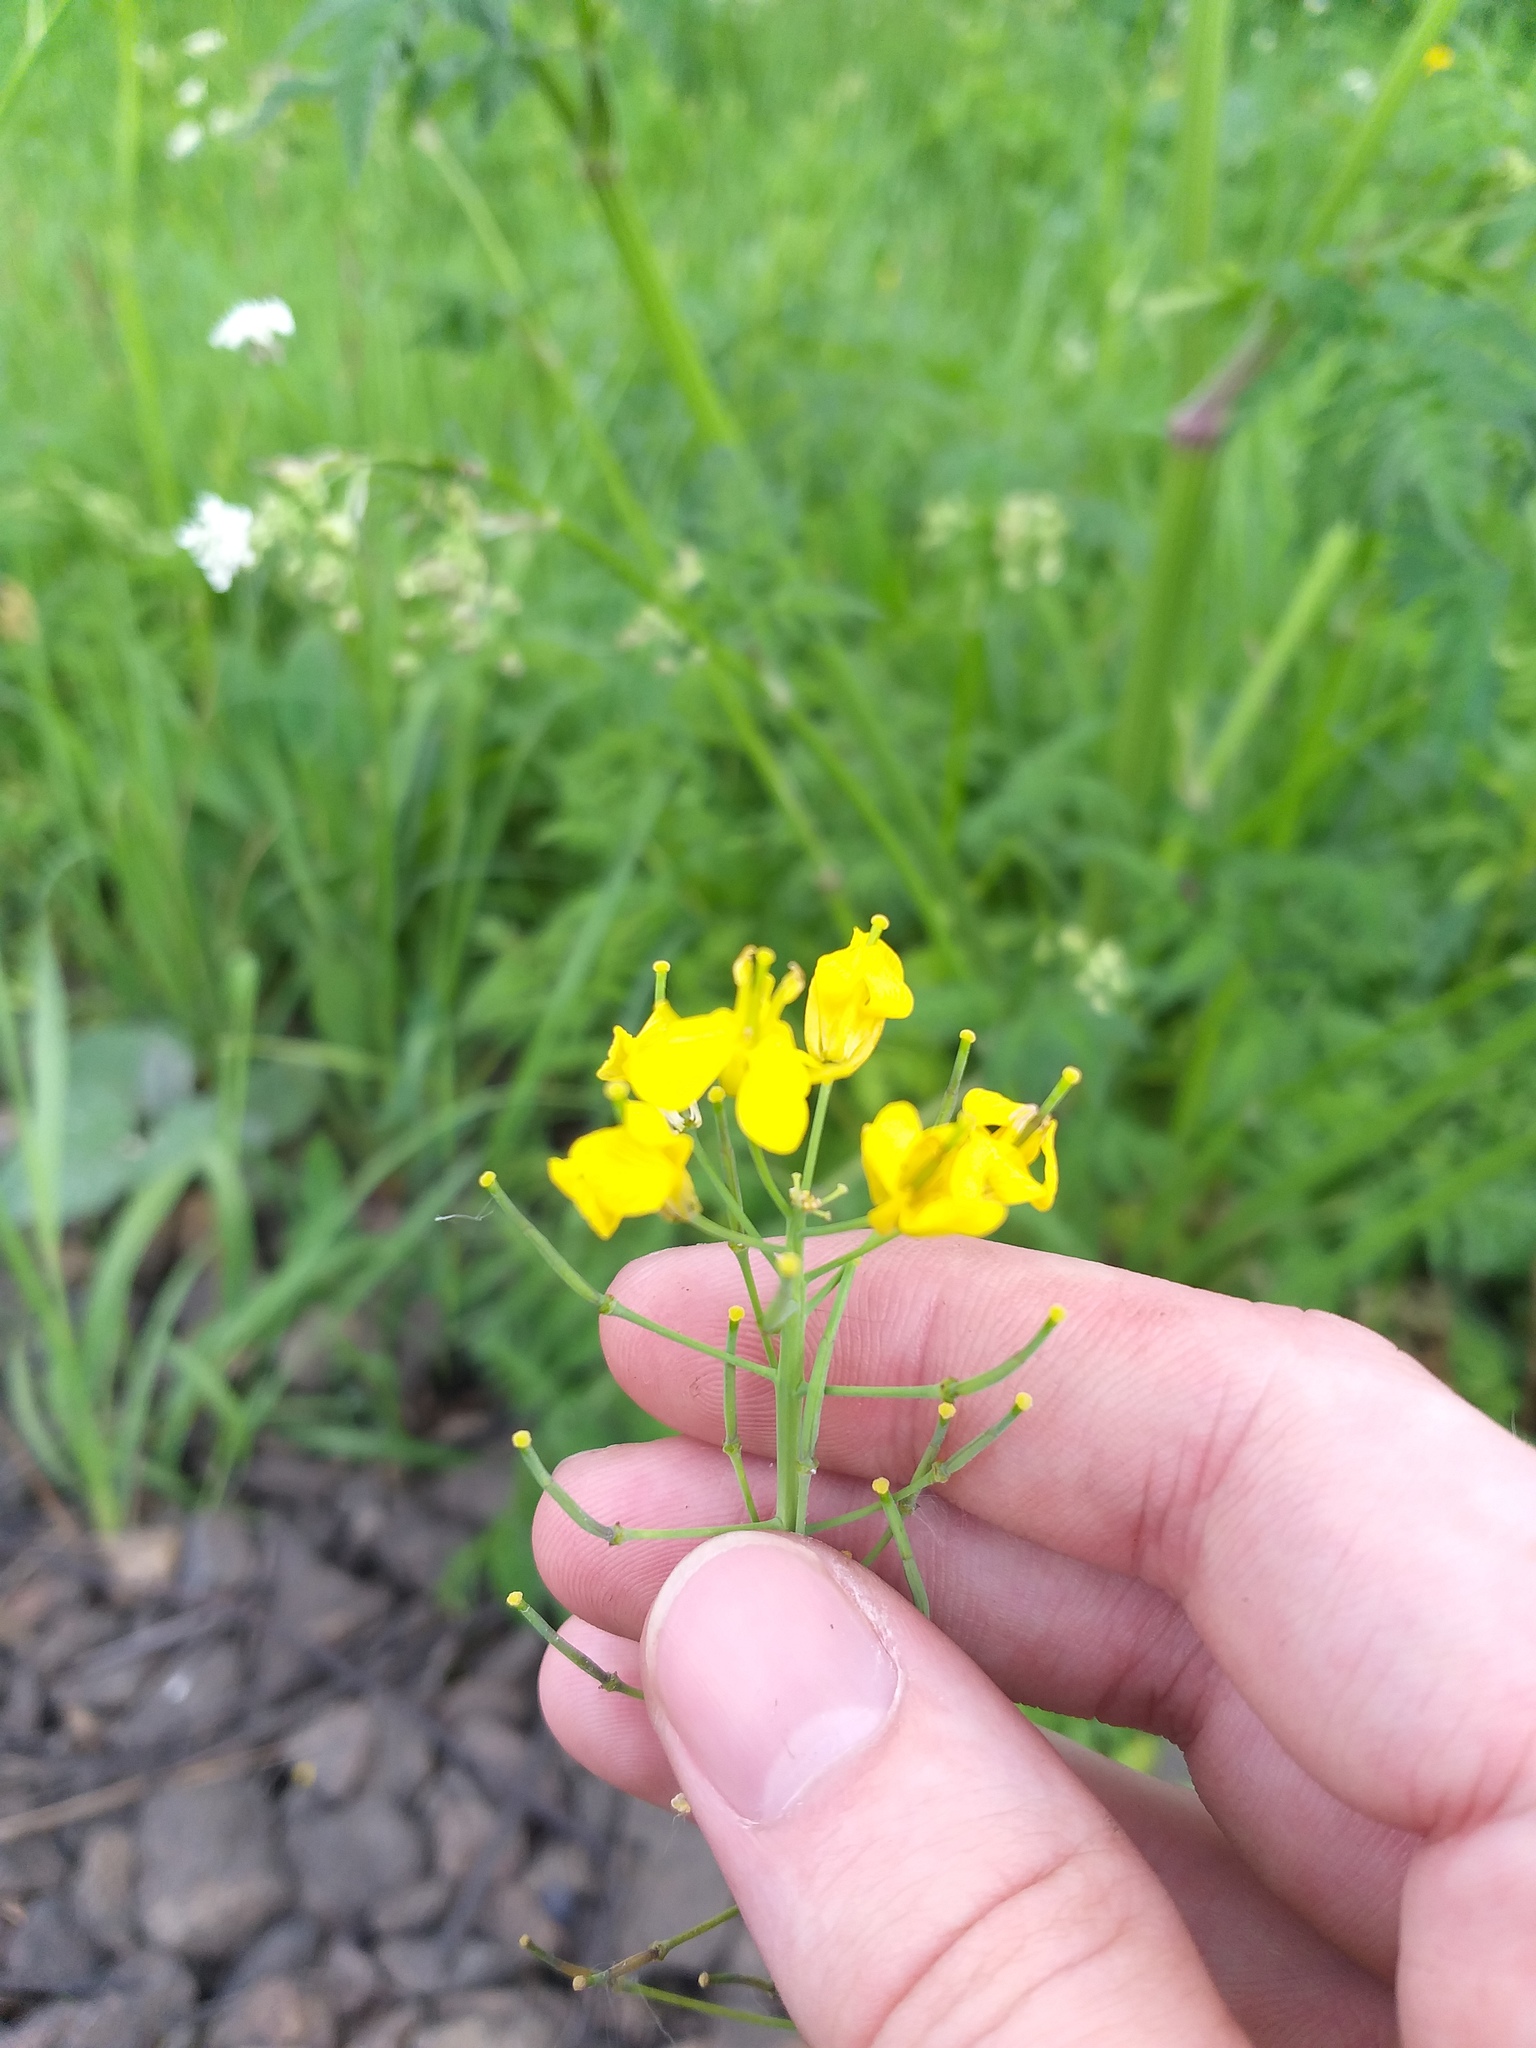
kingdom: Plantae
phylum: Tracheophyta
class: Magnoliopsida
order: Brassicales
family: Brassicaceae
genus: Brassica
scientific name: Brassica napus
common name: Rape
